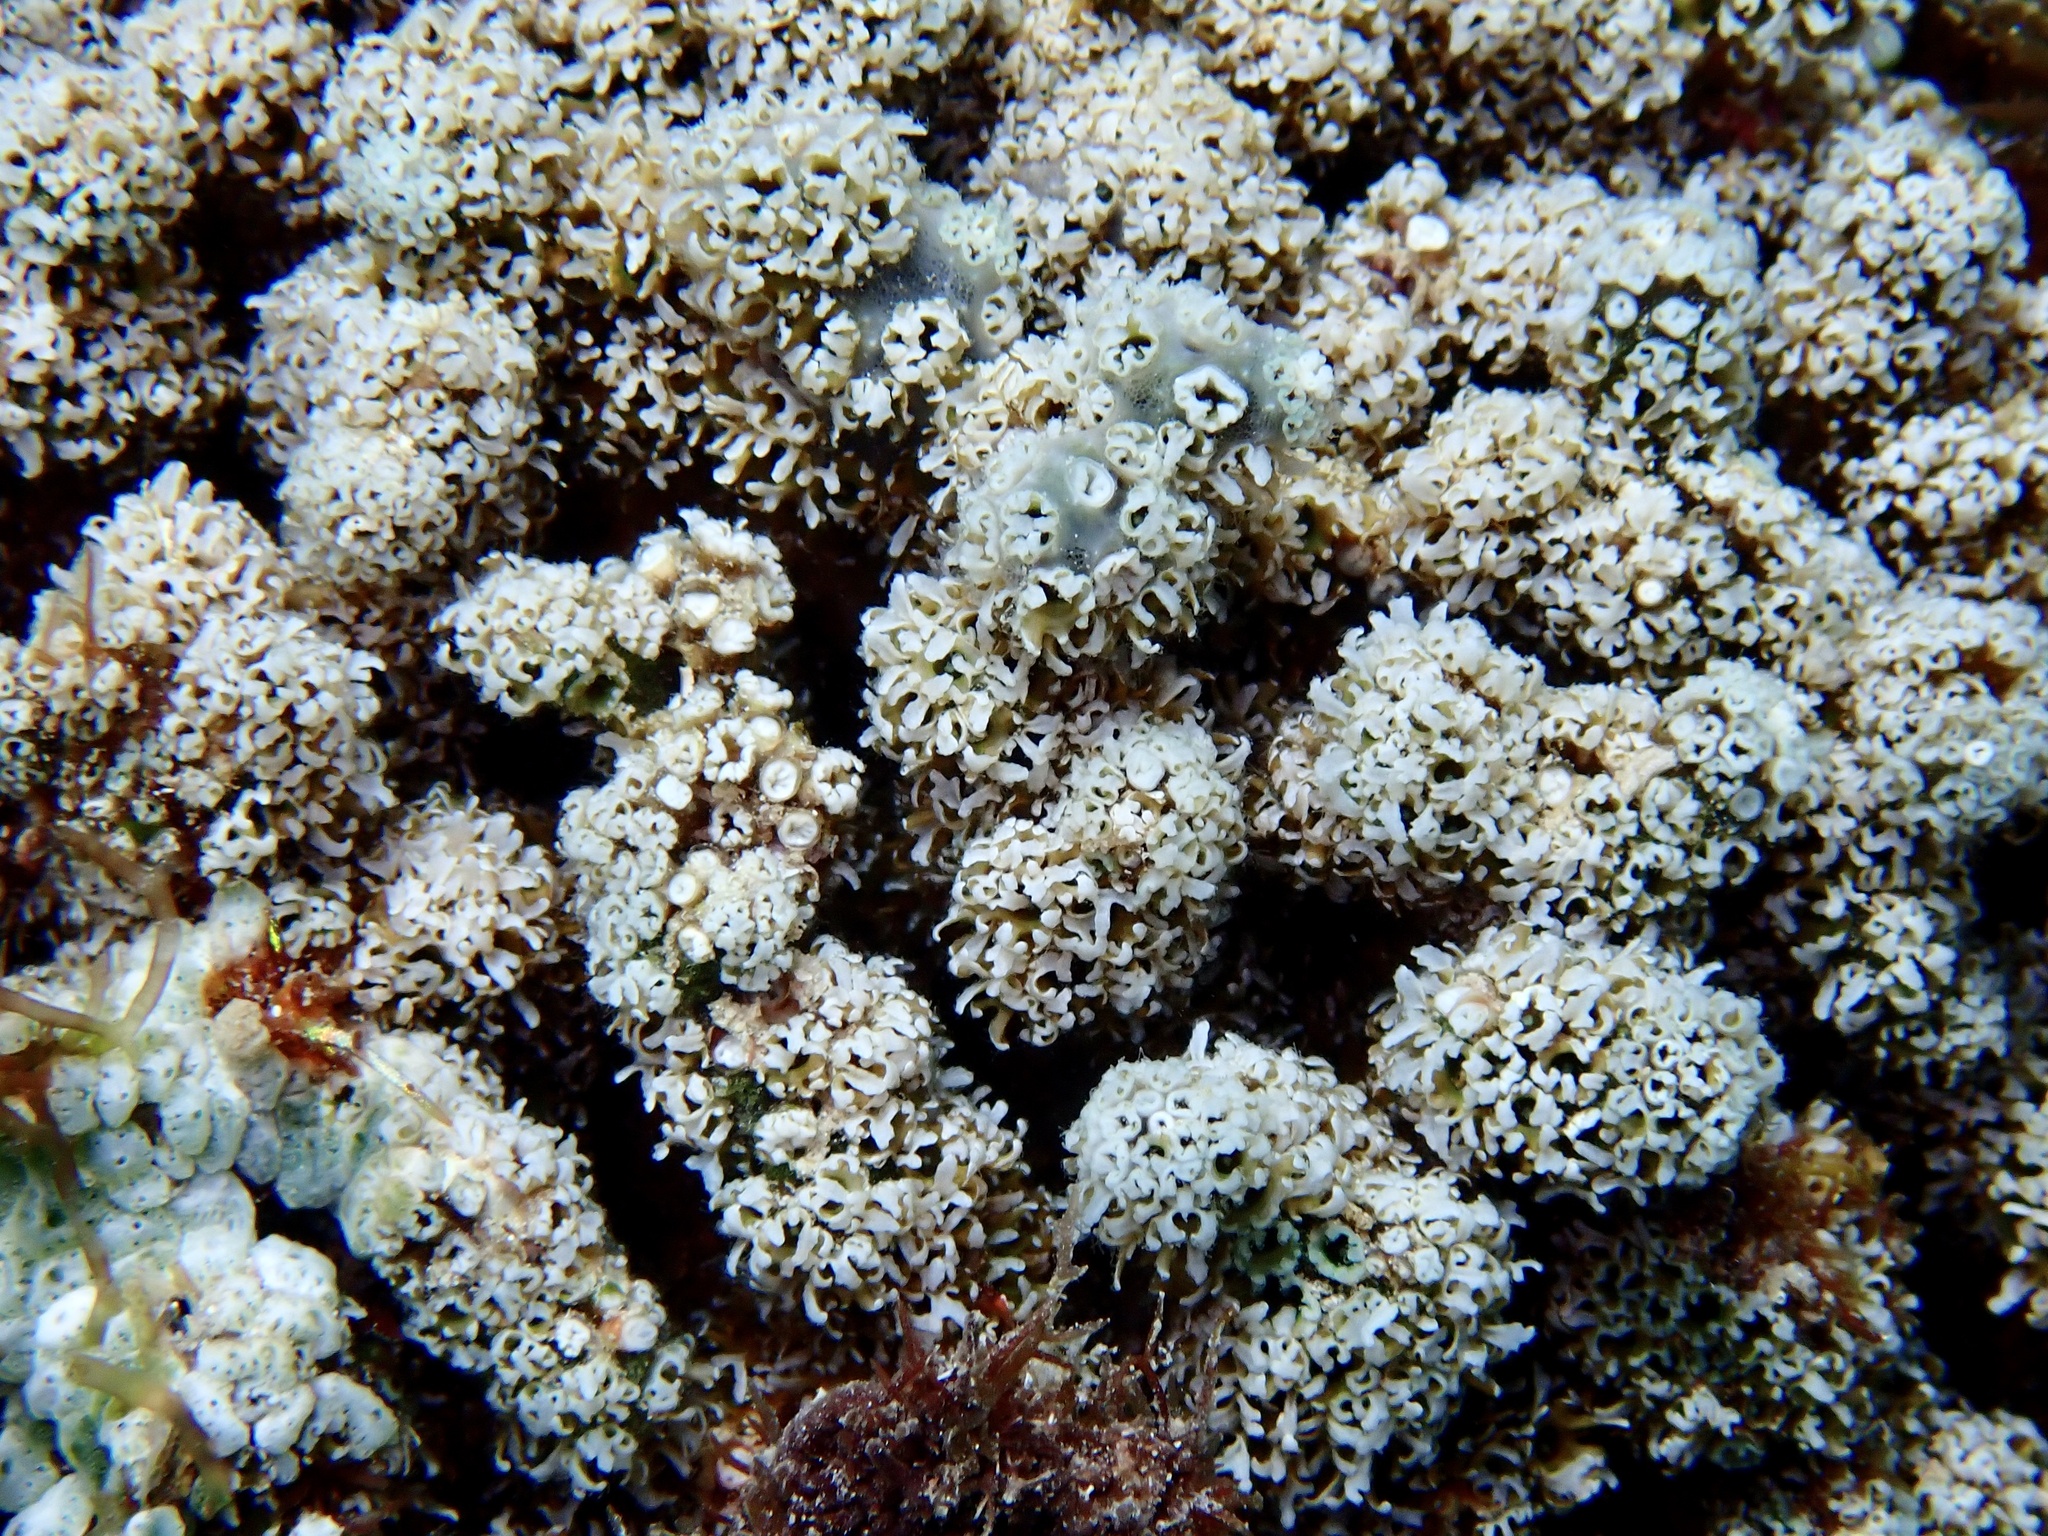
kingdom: Animalia
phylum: Cnidaria
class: Scyphozoa
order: Coronatae
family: Nausithoidae
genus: Nausithoe
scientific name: Nausithoe racemosa
